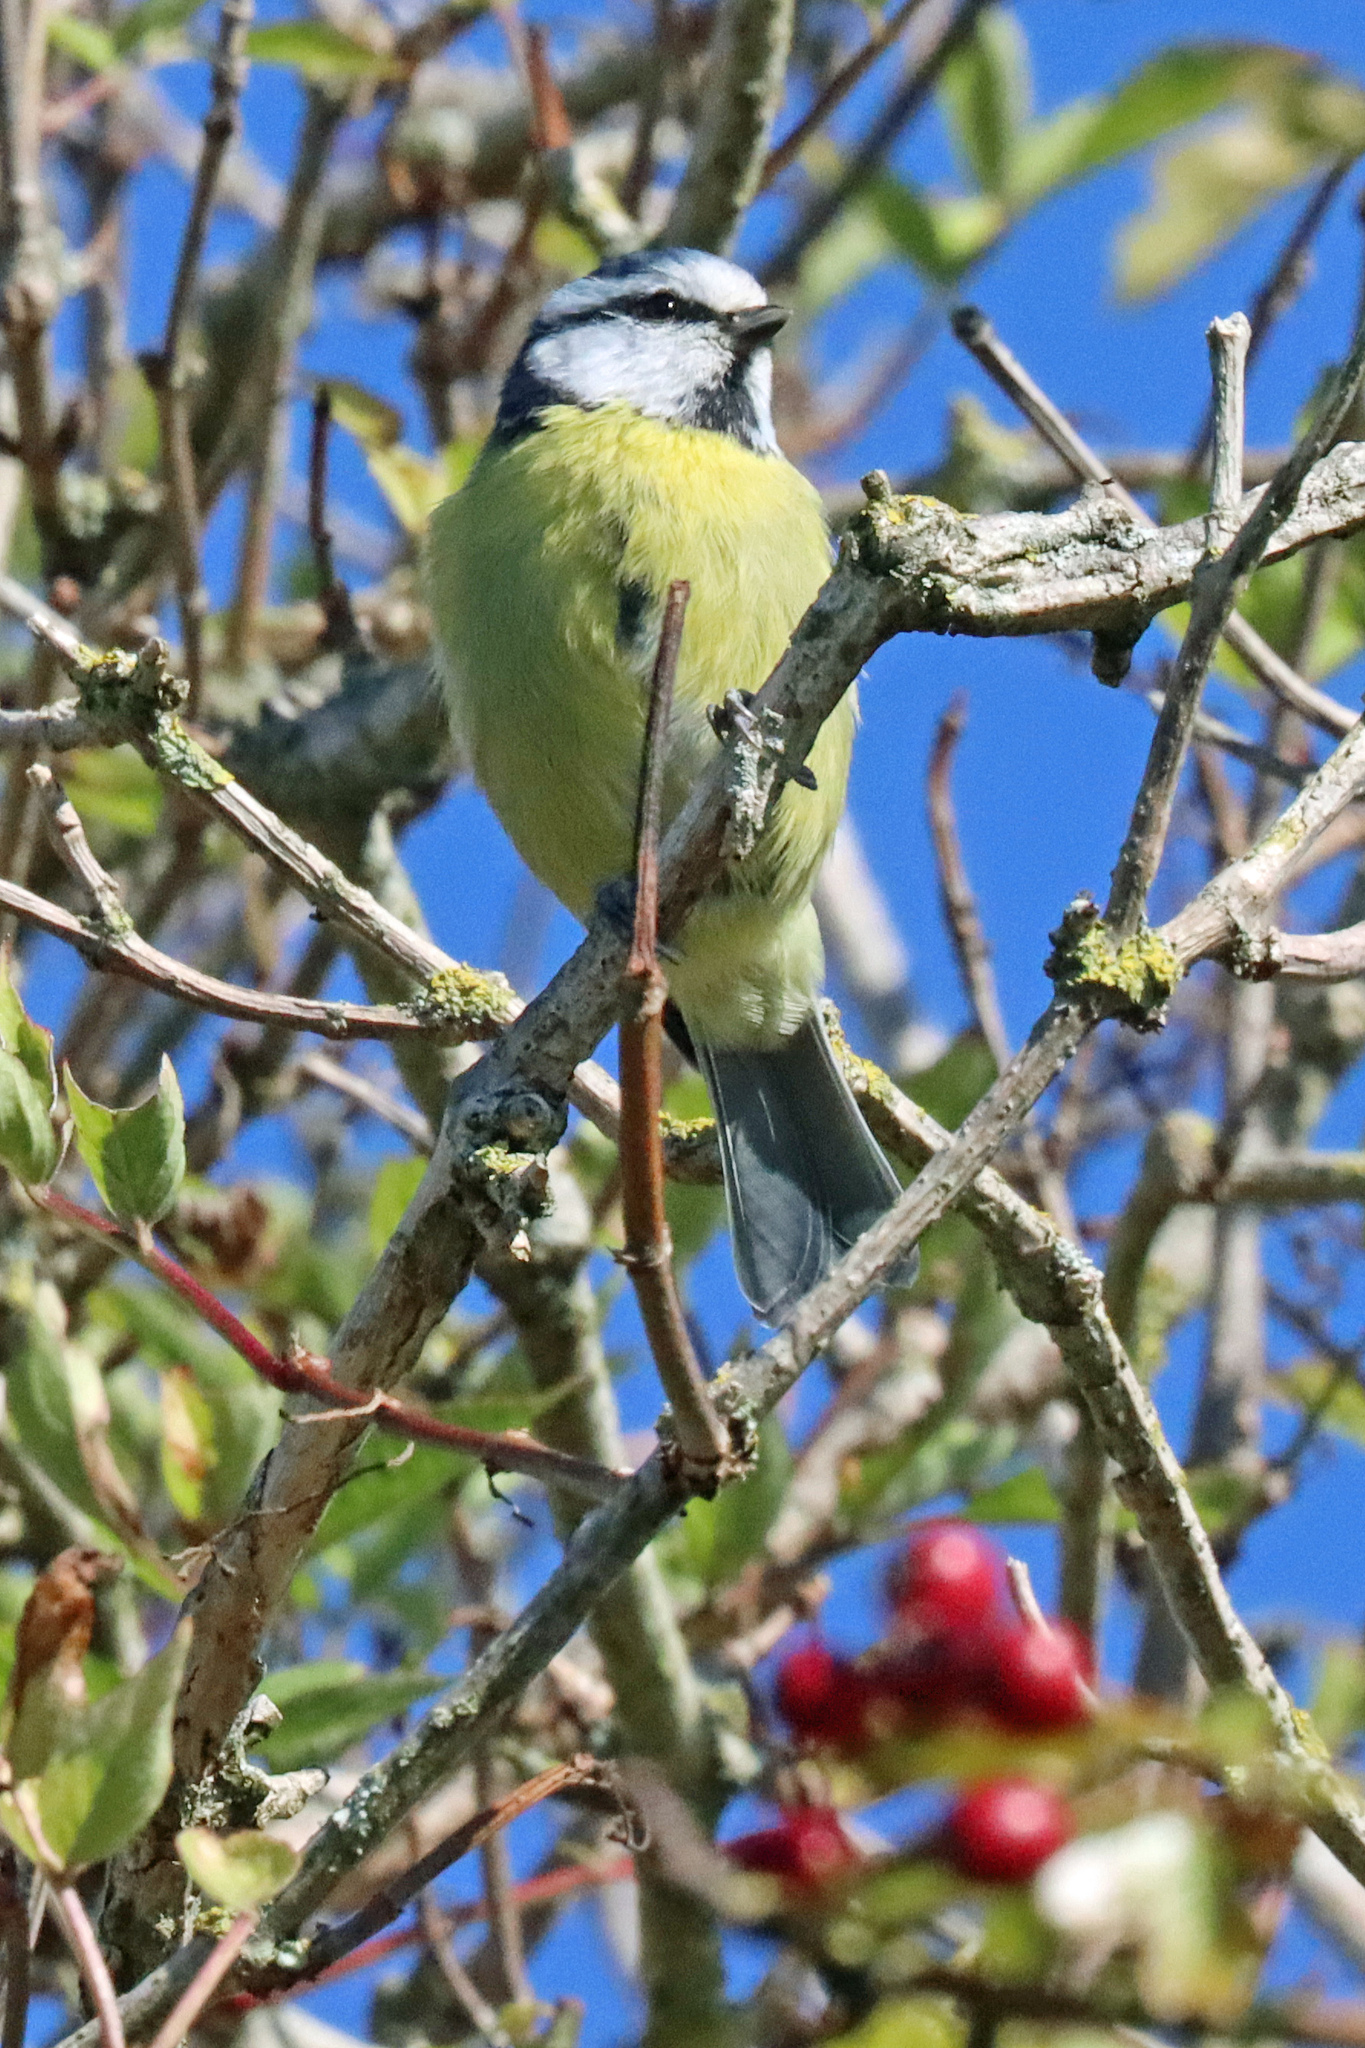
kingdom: Animalia
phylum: Chordata
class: Aves
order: Passeriformes
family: Paridae
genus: Cyanistes
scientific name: Cyanistes caeruleus
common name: Eurasian blue tit
